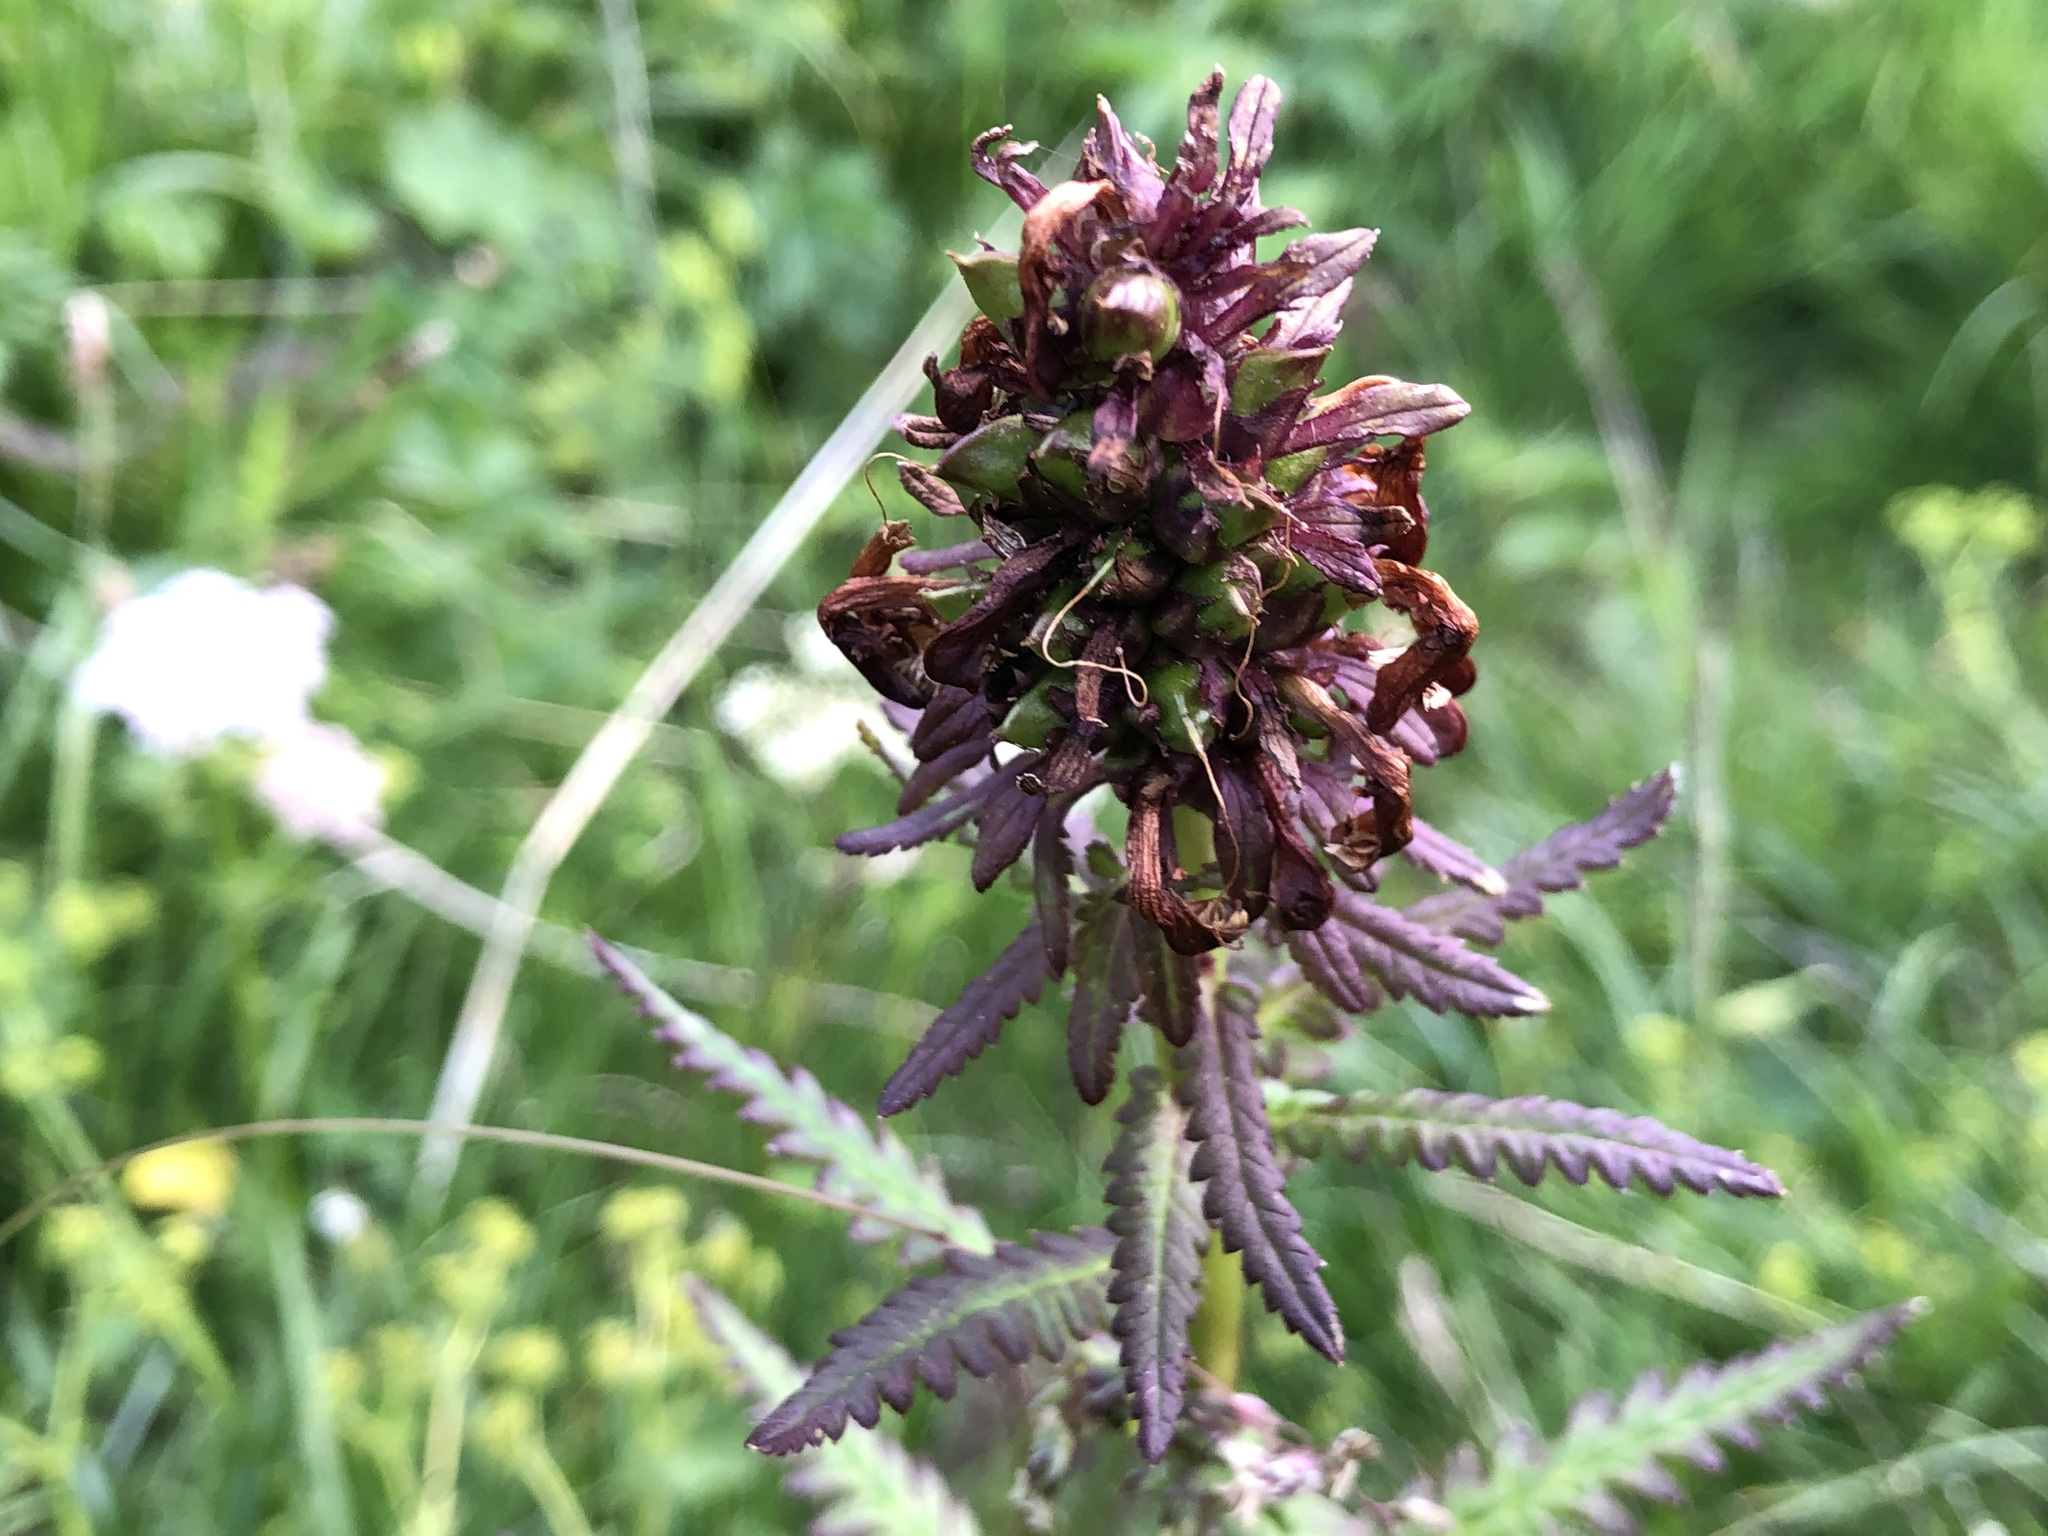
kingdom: Plantae
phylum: Tracheophyta
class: Magnoliopsida
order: Lamiales
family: Orobanchaceae
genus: Pedicularis
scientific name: Pedicularis recutita
